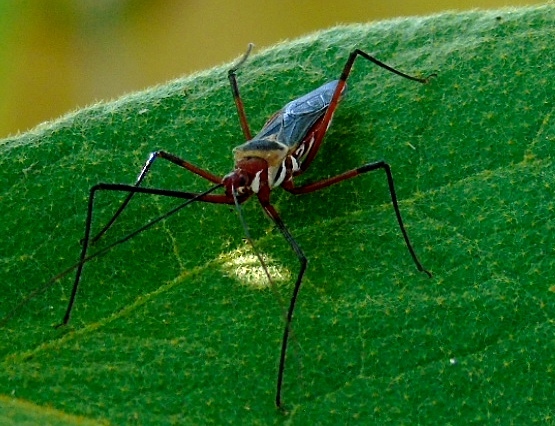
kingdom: Animalia
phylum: Arthropoda
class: Insecta
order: Hemiptera
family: Reduviidae
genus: Zelus
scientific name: Zelus grassans
